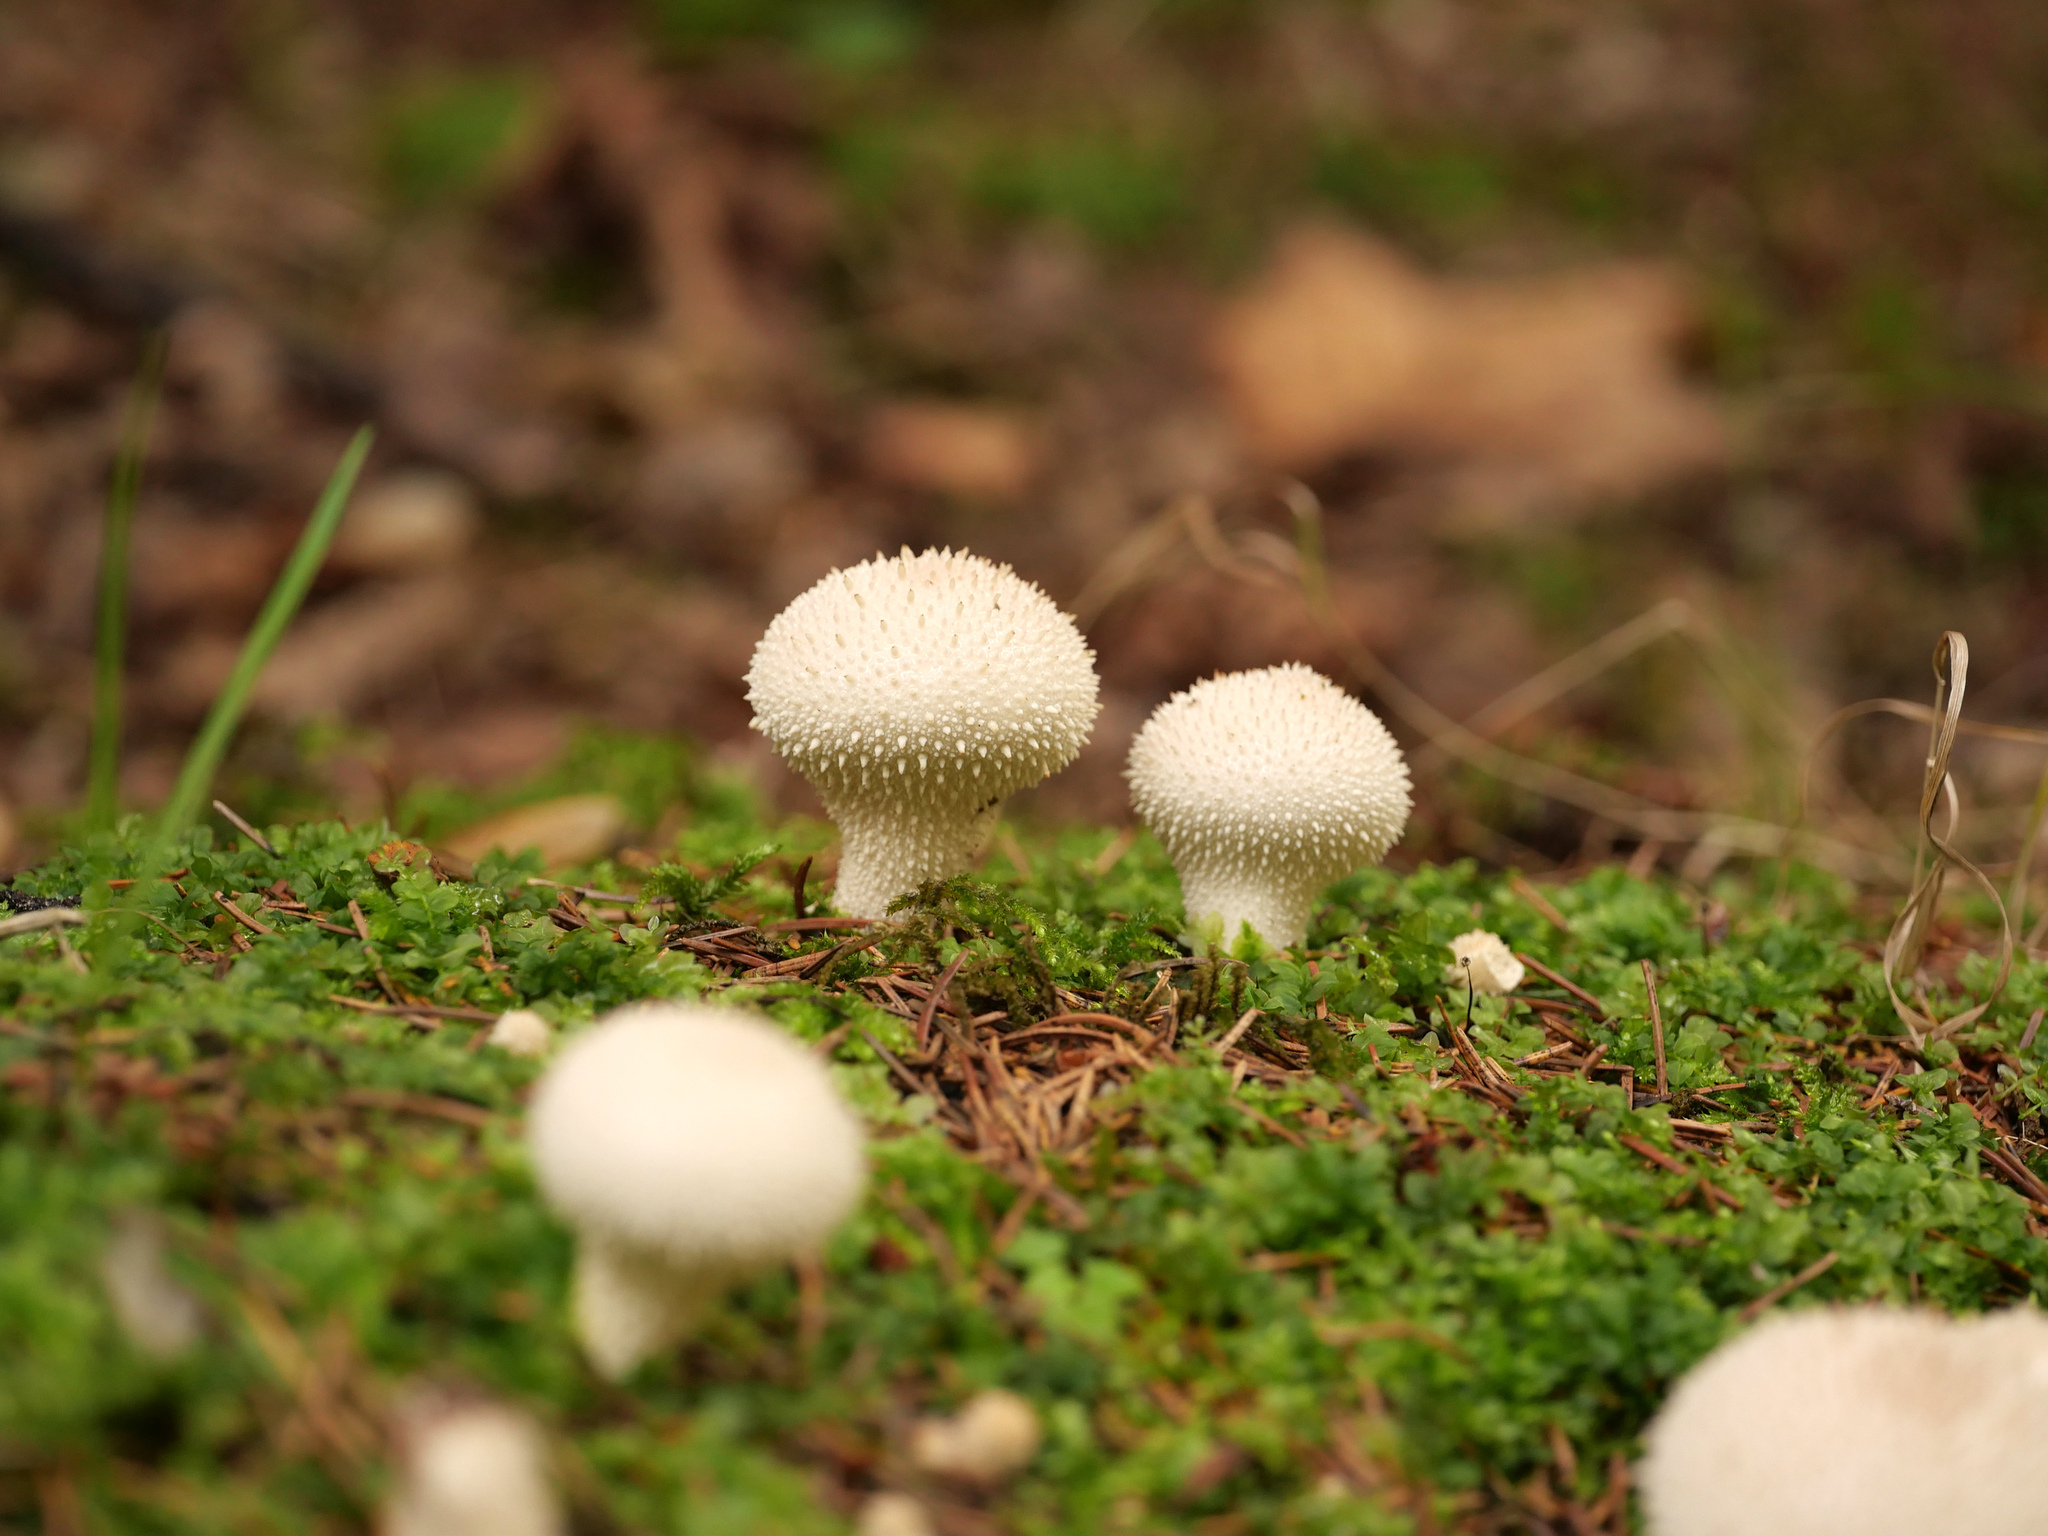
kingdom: Fungi
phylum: Basidiomycota
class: Agaricomycetes
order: Agaricales
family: Lycoperdaceae
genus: Lycoperdon
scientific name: Lycoperdon perlatum
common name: Common puffball
